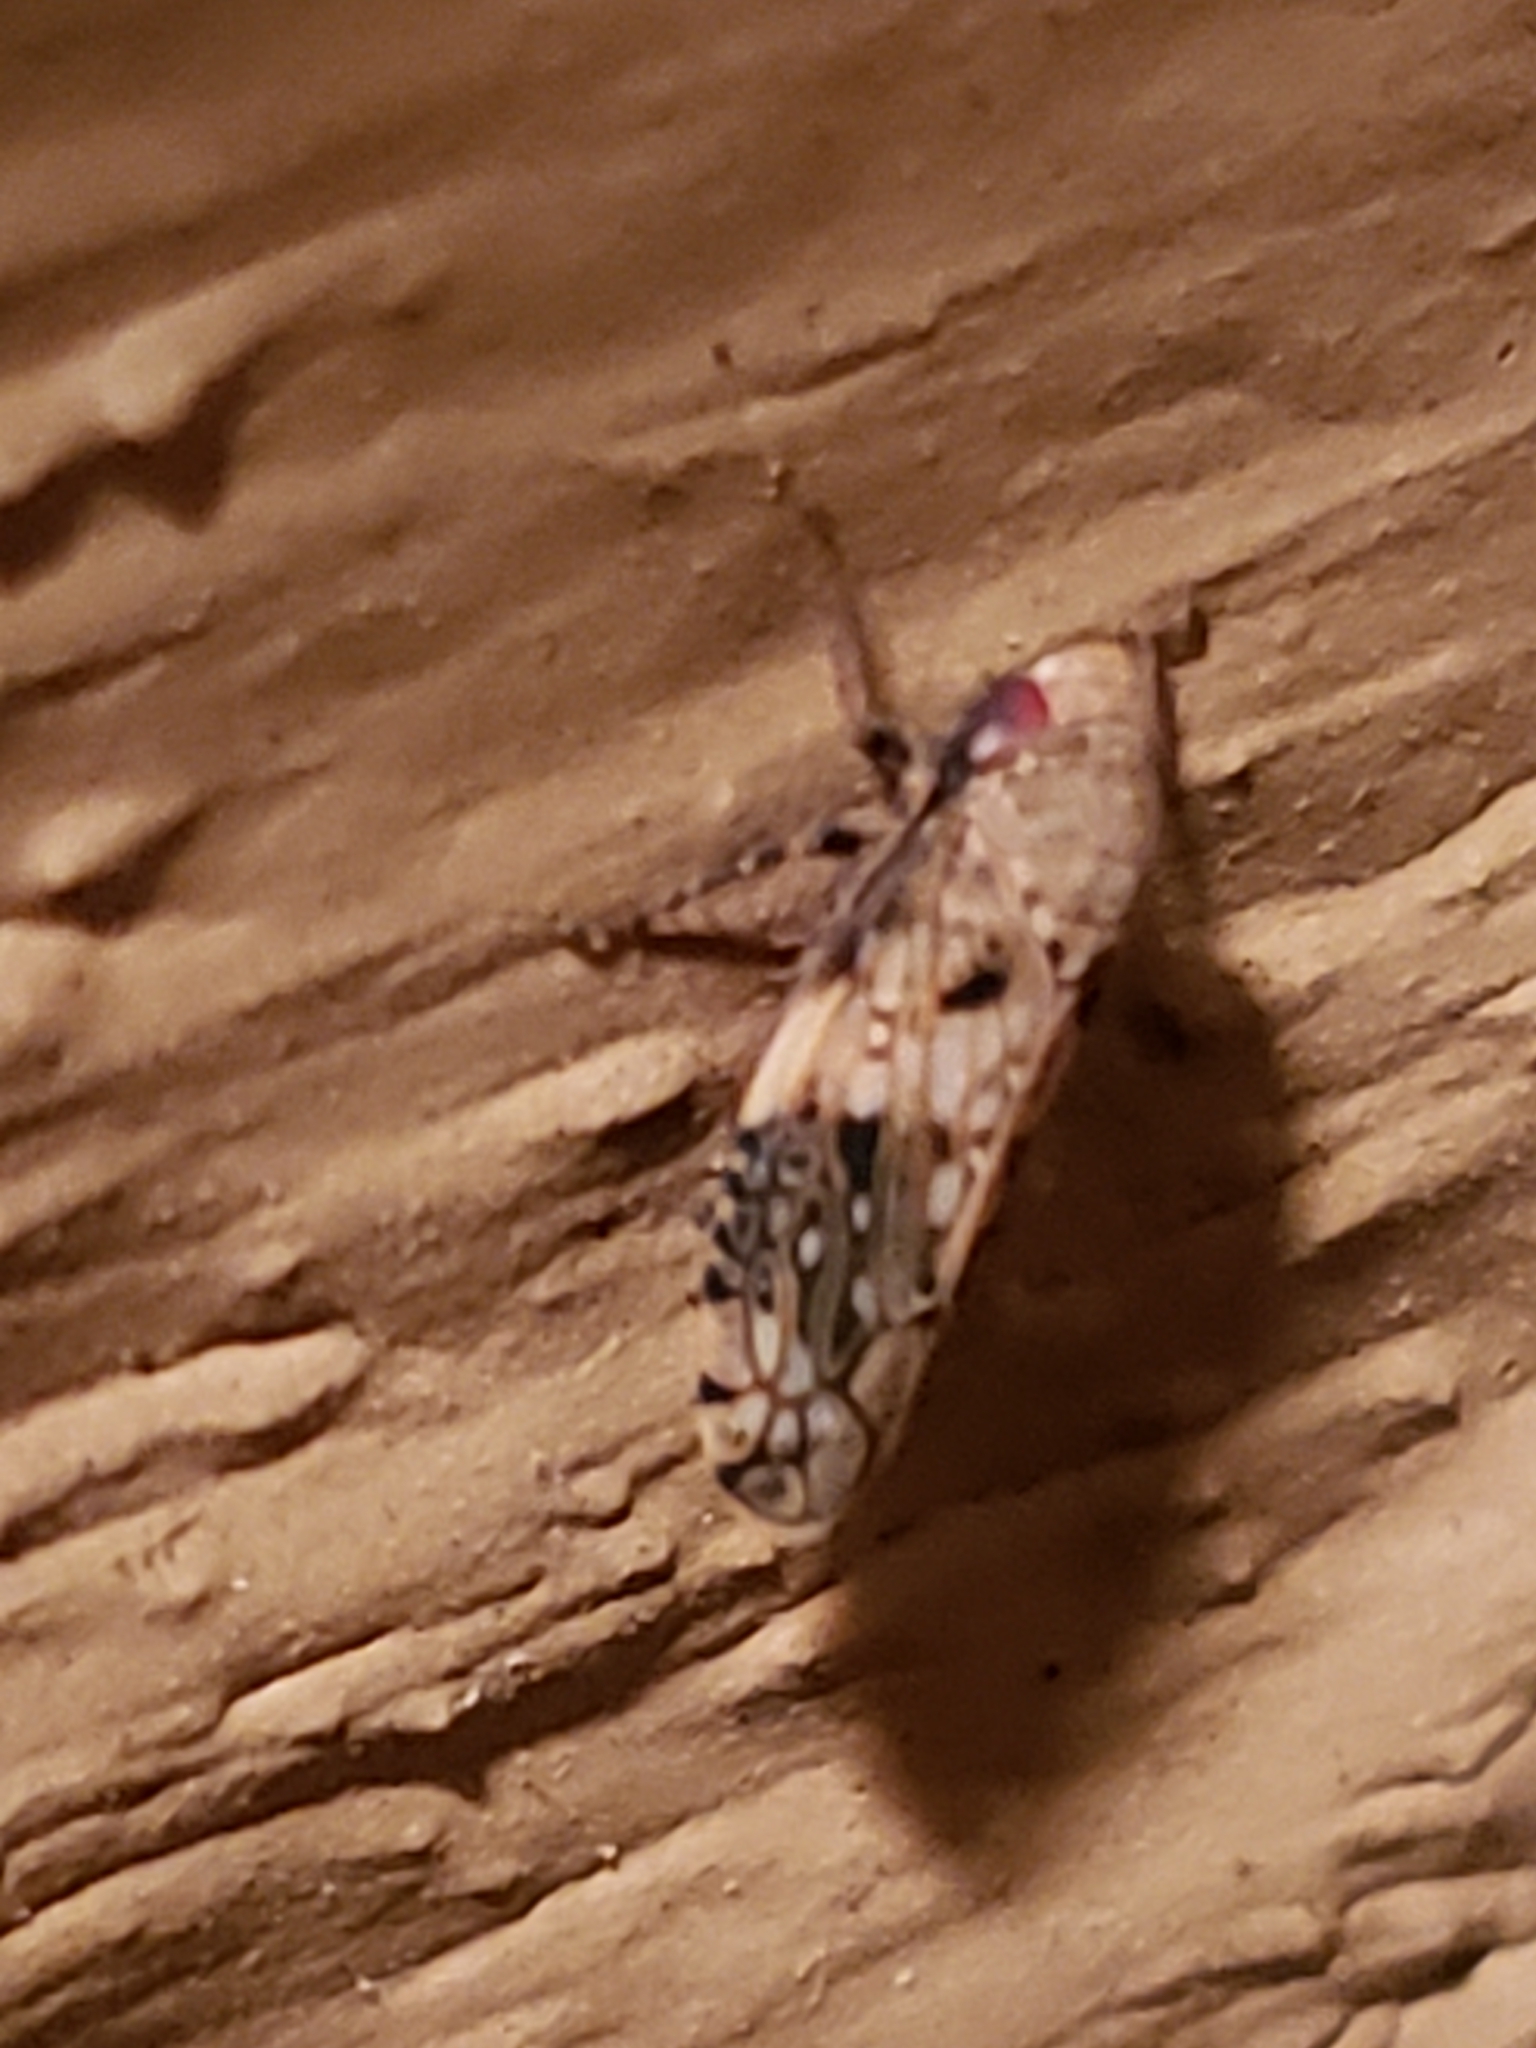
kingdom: Animalia
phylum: Arthropoda
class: Insecta
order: Hemiptera
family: Cicadellidae
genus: Menosoma
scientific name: Menosoma cinctum
